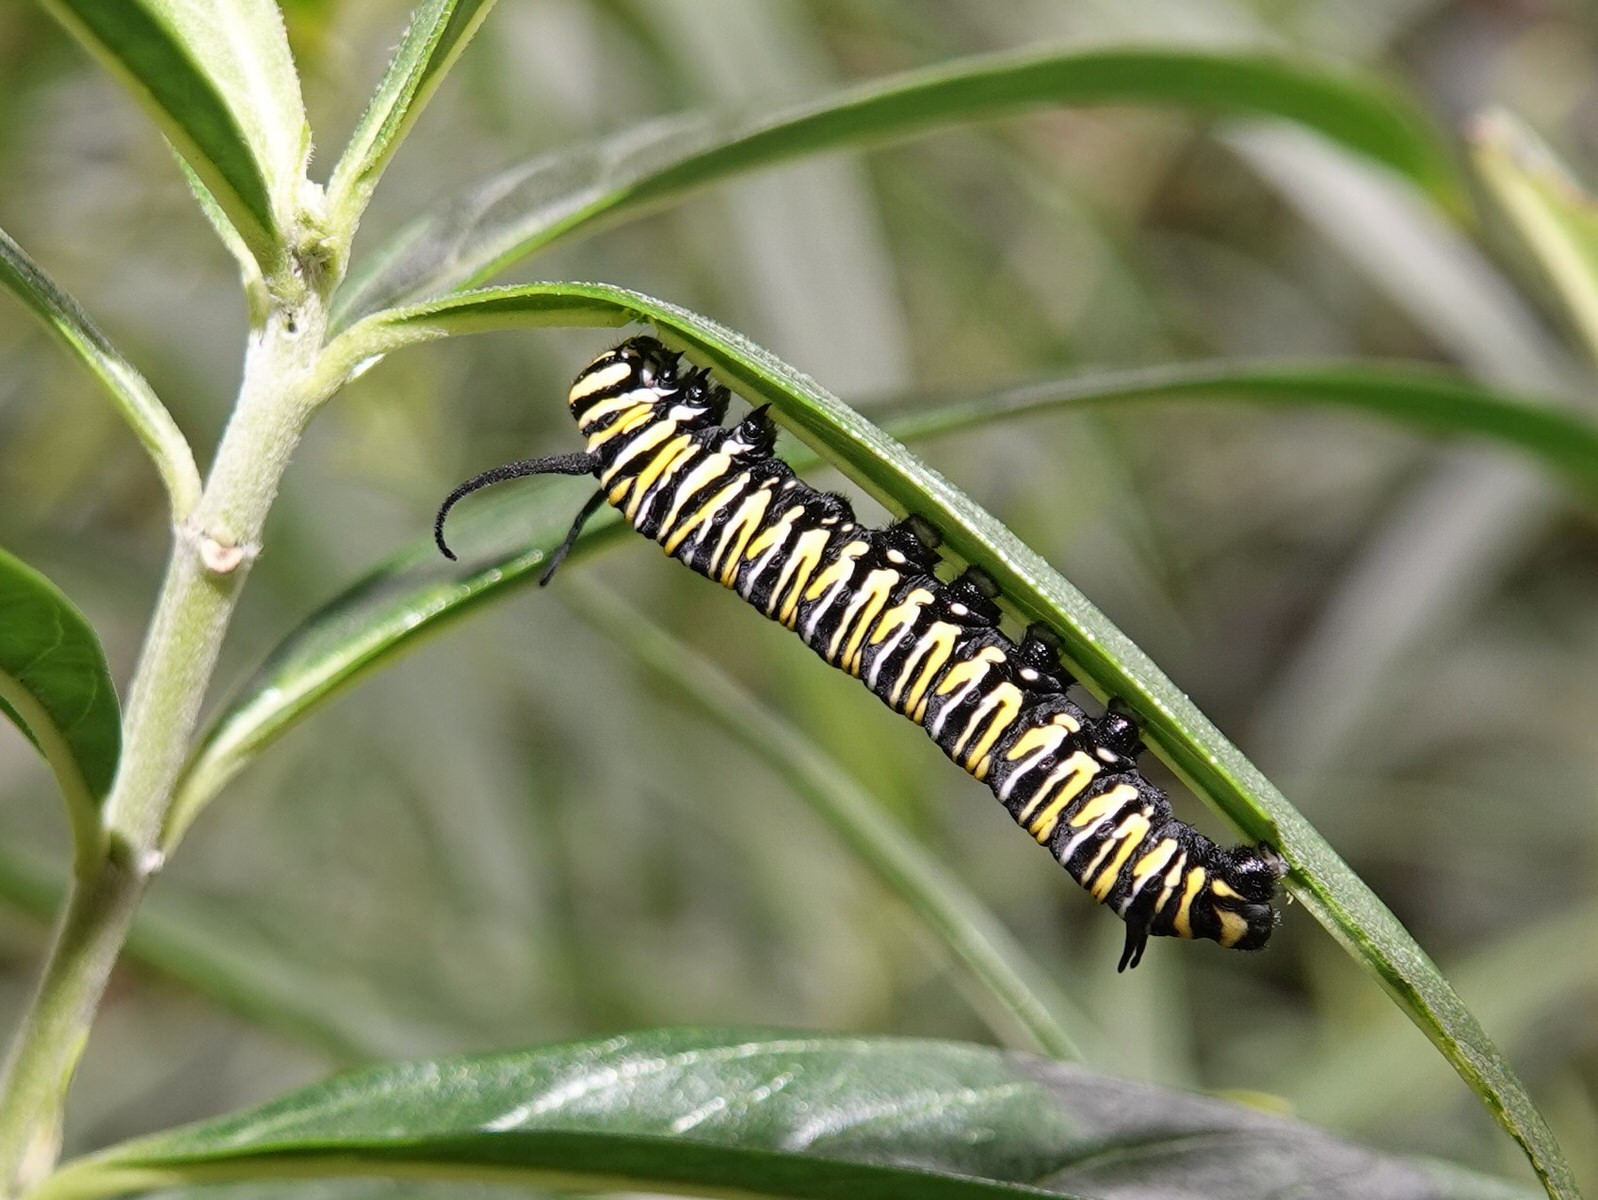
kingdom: Animalia
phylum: Arthropoda
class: Insecta
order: Lepidoptera
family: Nymphalidae
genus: Danaus
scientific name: Danaus plexippus
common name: Monarch
